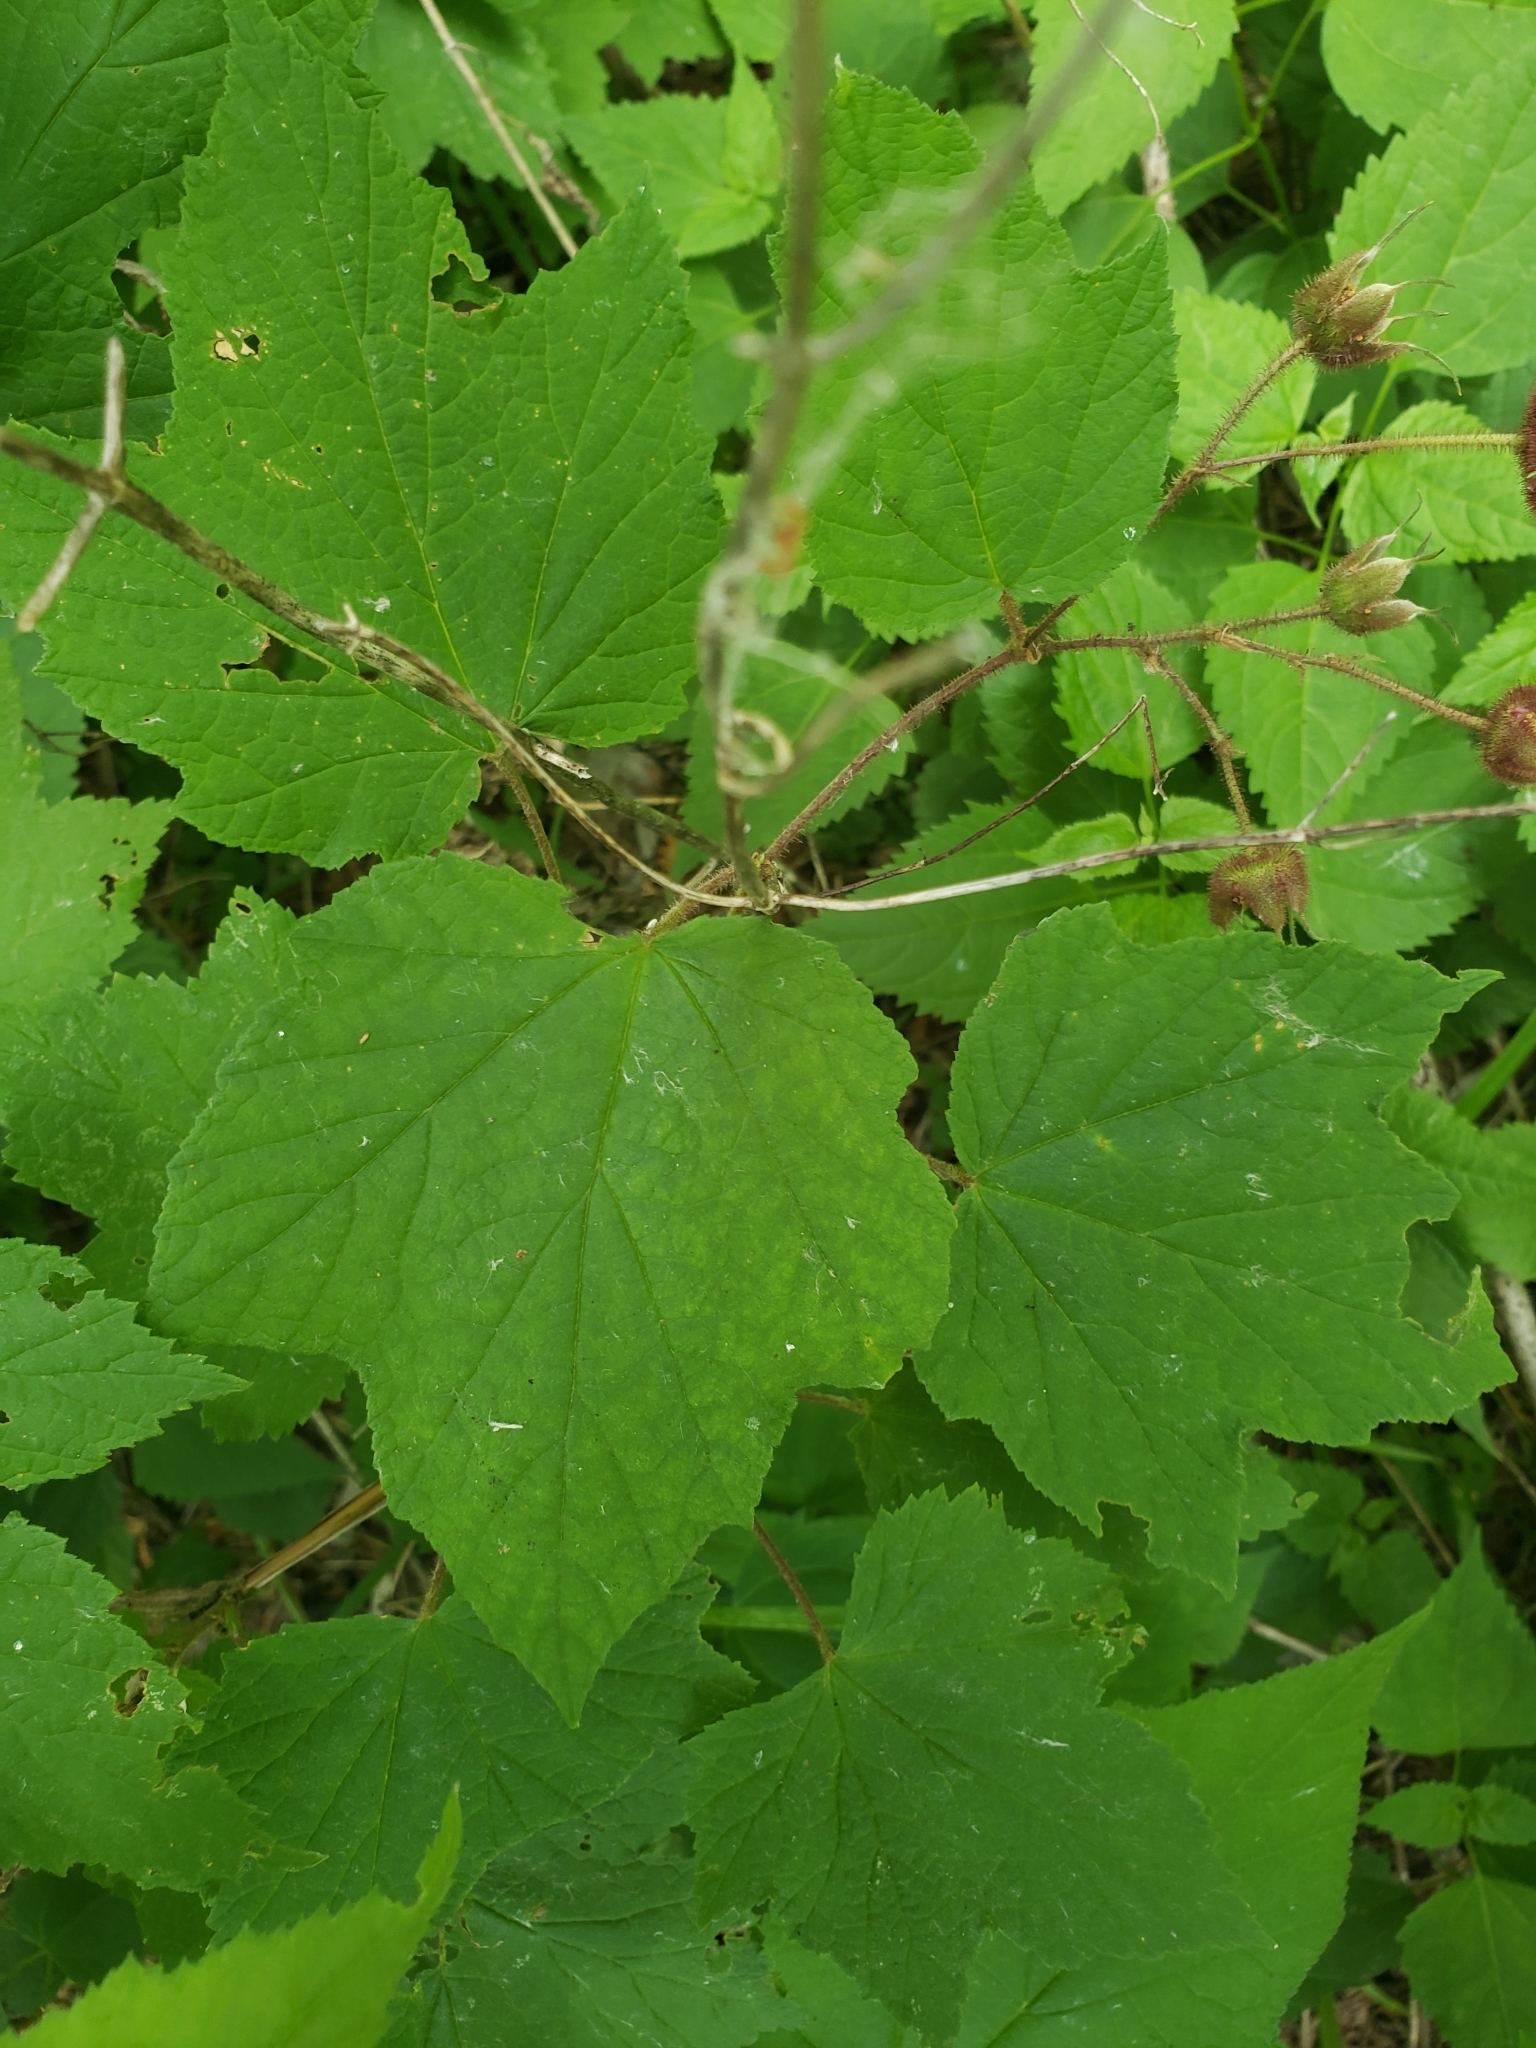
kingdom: Plantae
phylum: Tracheophyta
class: Magnoliopsida
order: Rosales
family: Rosaceae
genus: Rubus
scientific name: Rubus odoratus
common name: Purple-flowered raspberry
